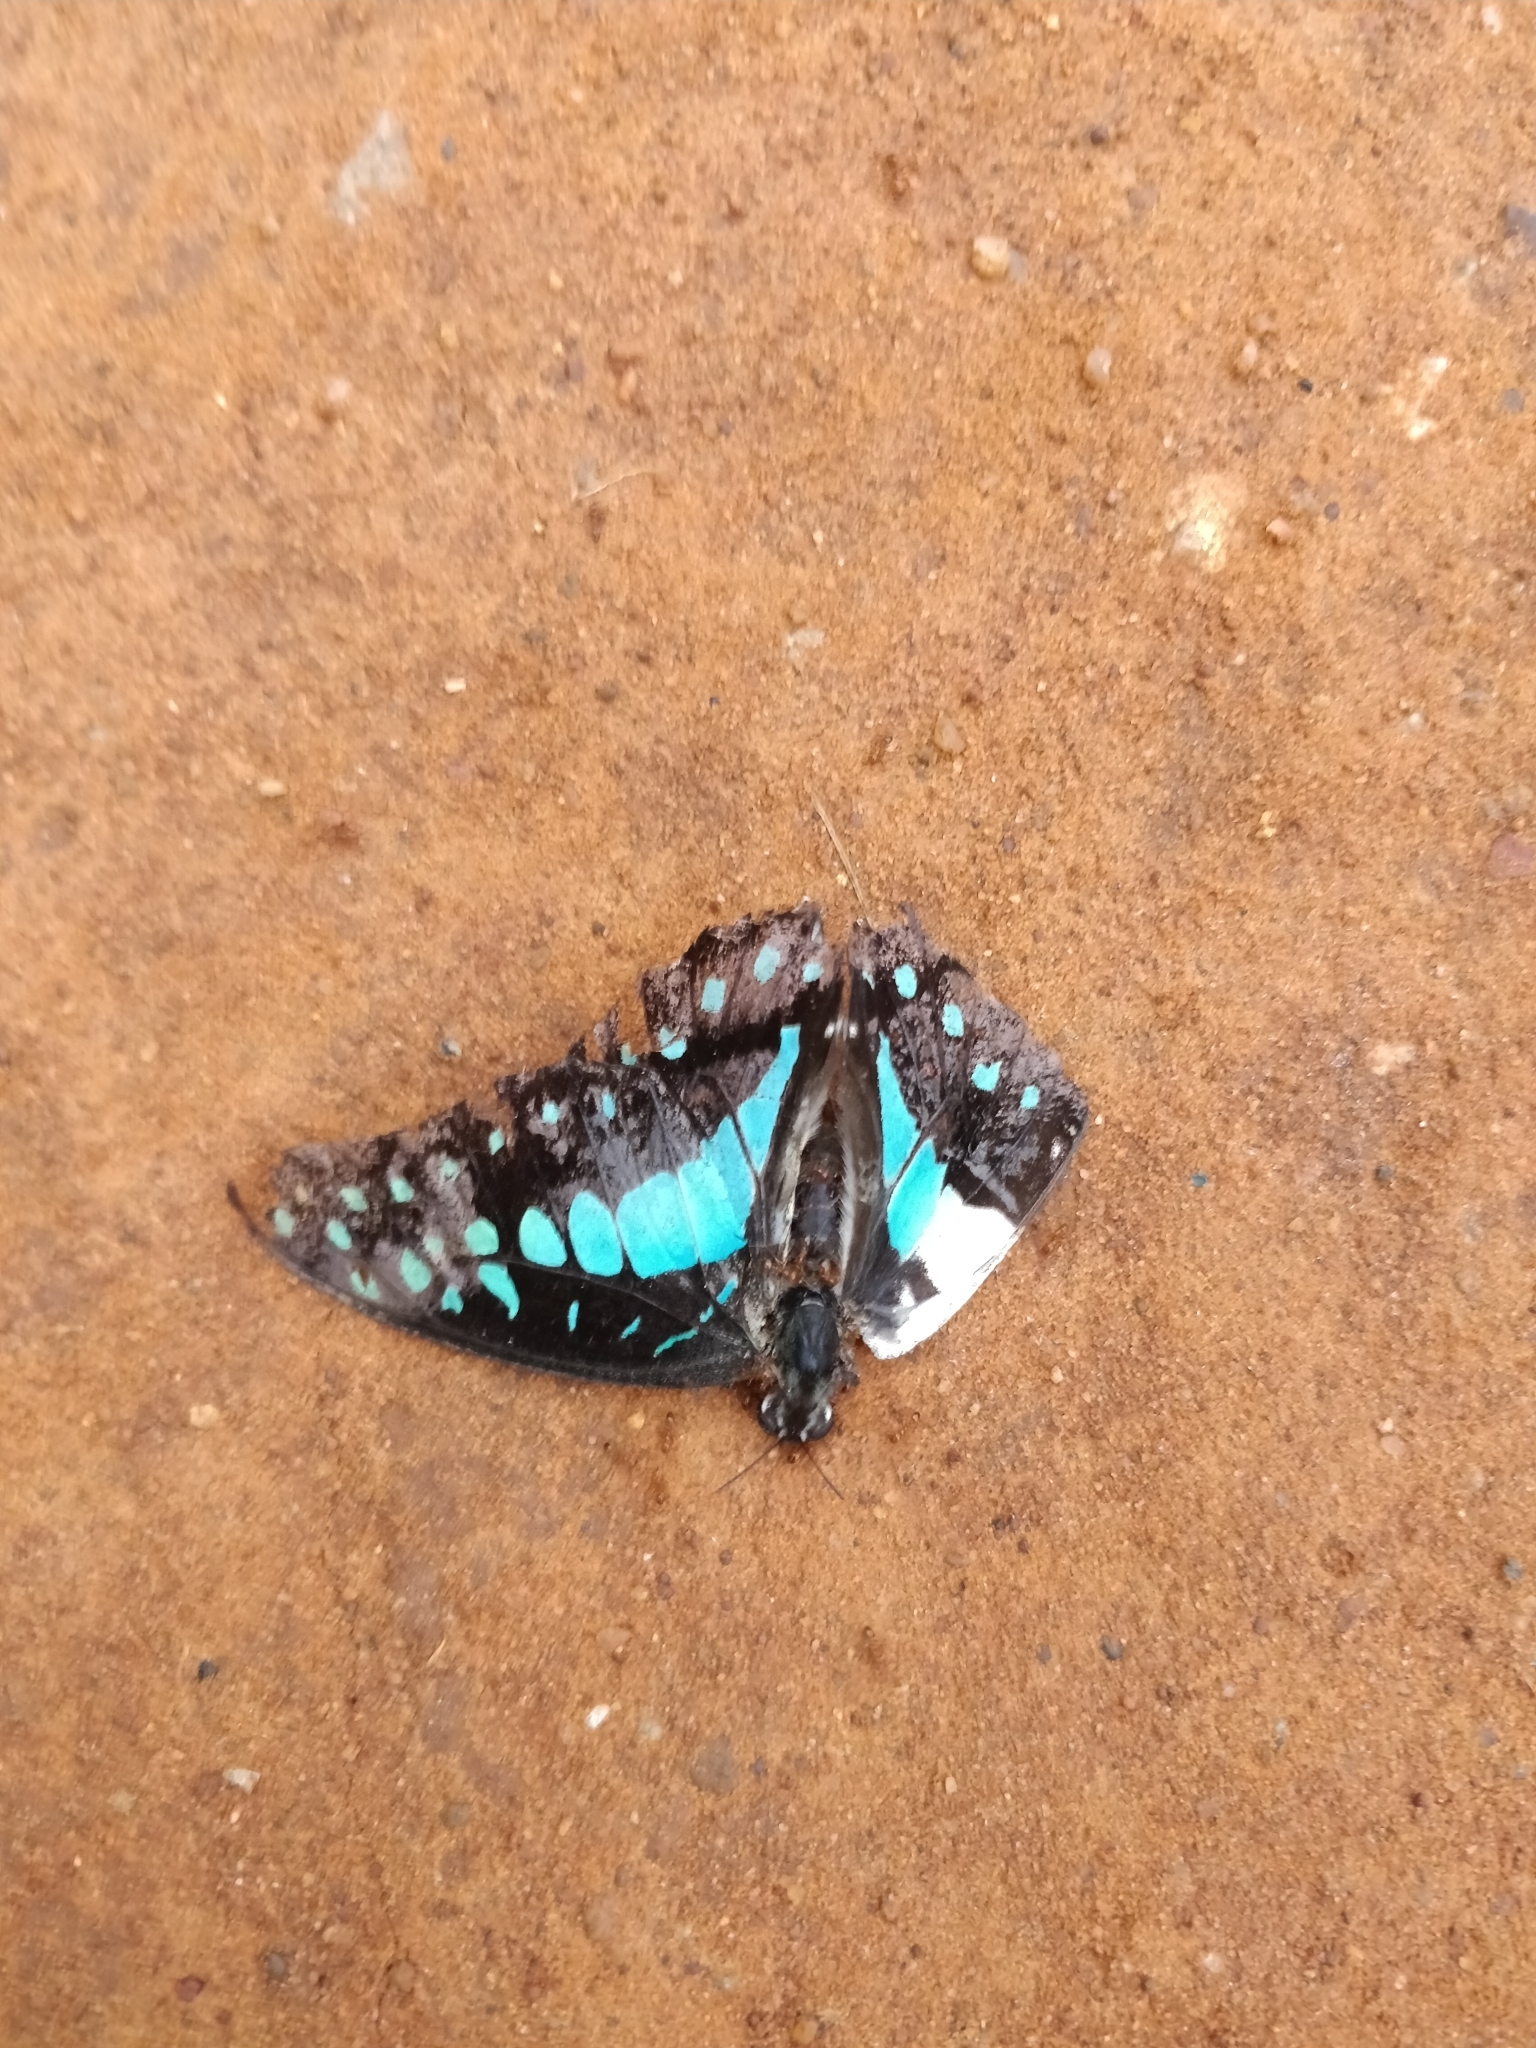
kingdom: Animalia
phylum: Arthropoda
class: Insecta
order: Lepidoptera
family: Papilionidae
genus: Graphium
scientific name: Graphium doson
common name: Common jay
